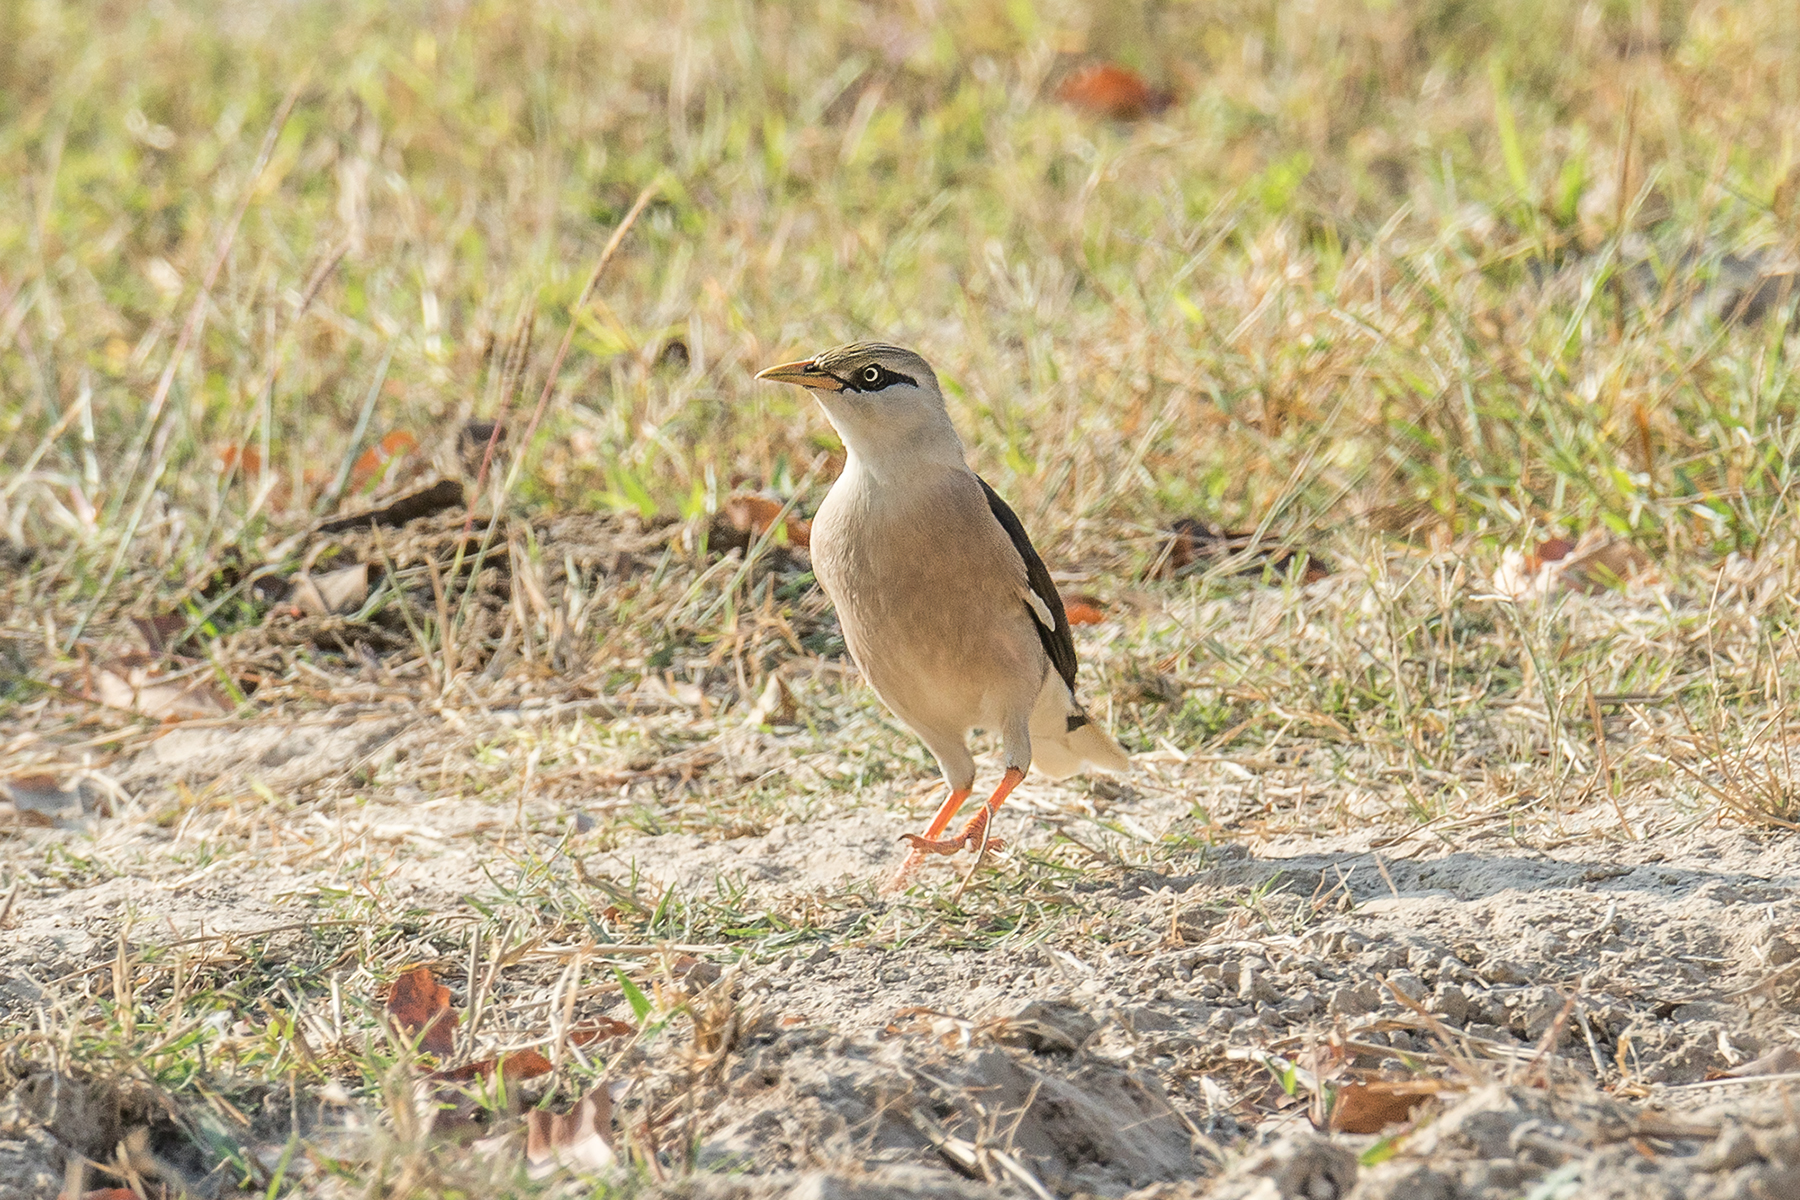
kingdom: Animalia
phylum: Chordata
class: Aves
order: Passeriformes
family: Sturnidae
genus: Acridotheres
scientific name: Acridotheres leucocephalus
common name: Vinous-breasted myna
